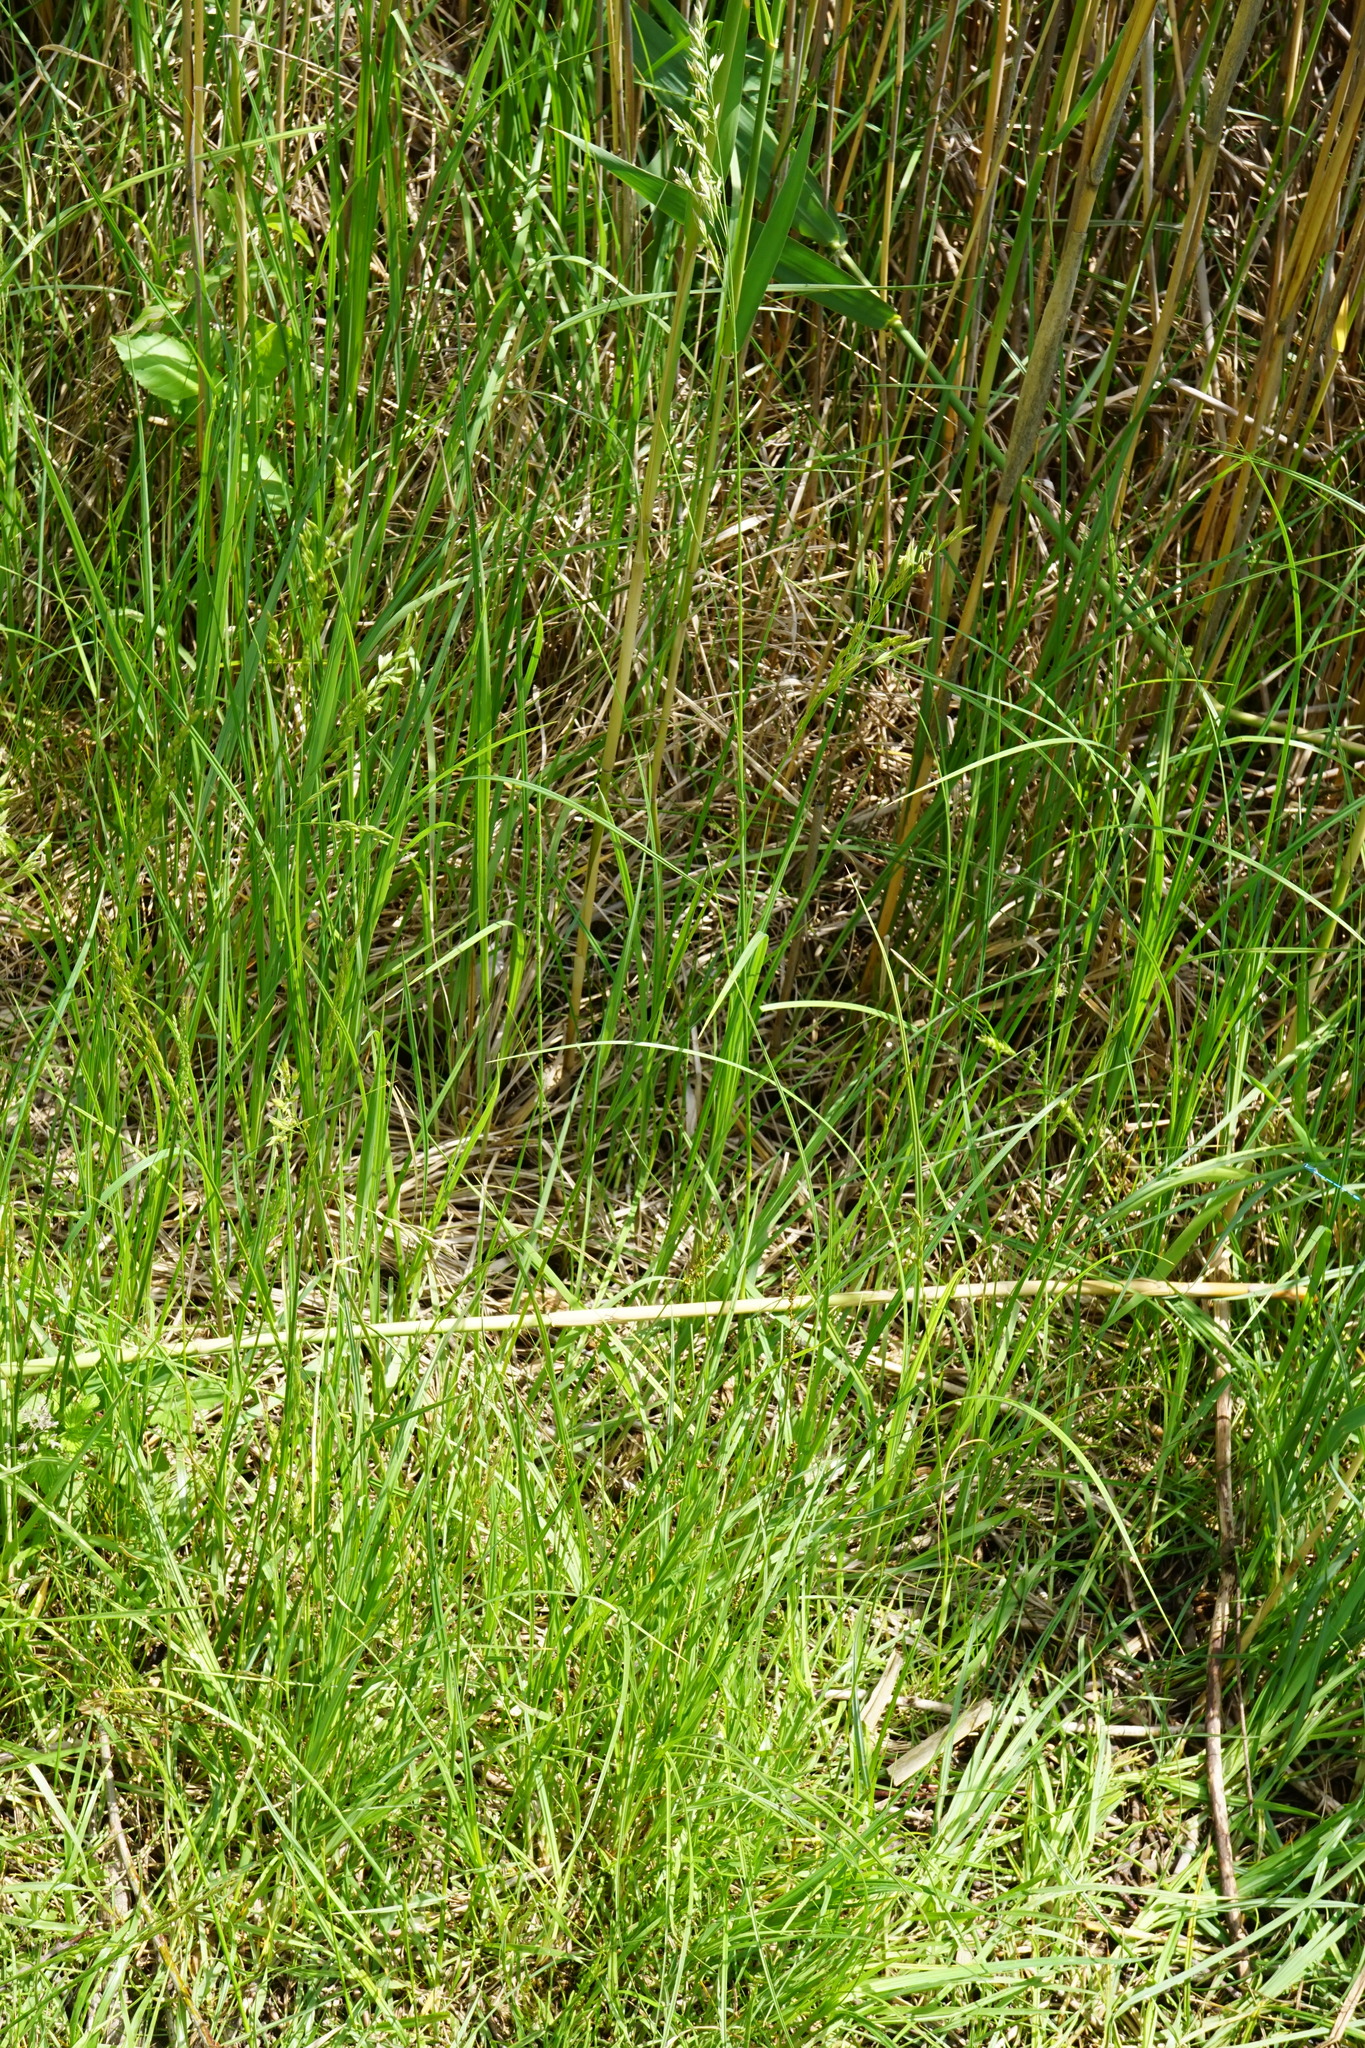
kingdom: Plantae
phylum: Tracheophyta
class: Liliopsida
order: Poales
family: Poaceae
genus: Lolium
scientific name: Lolium arundinaceum
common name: Reed fescue
